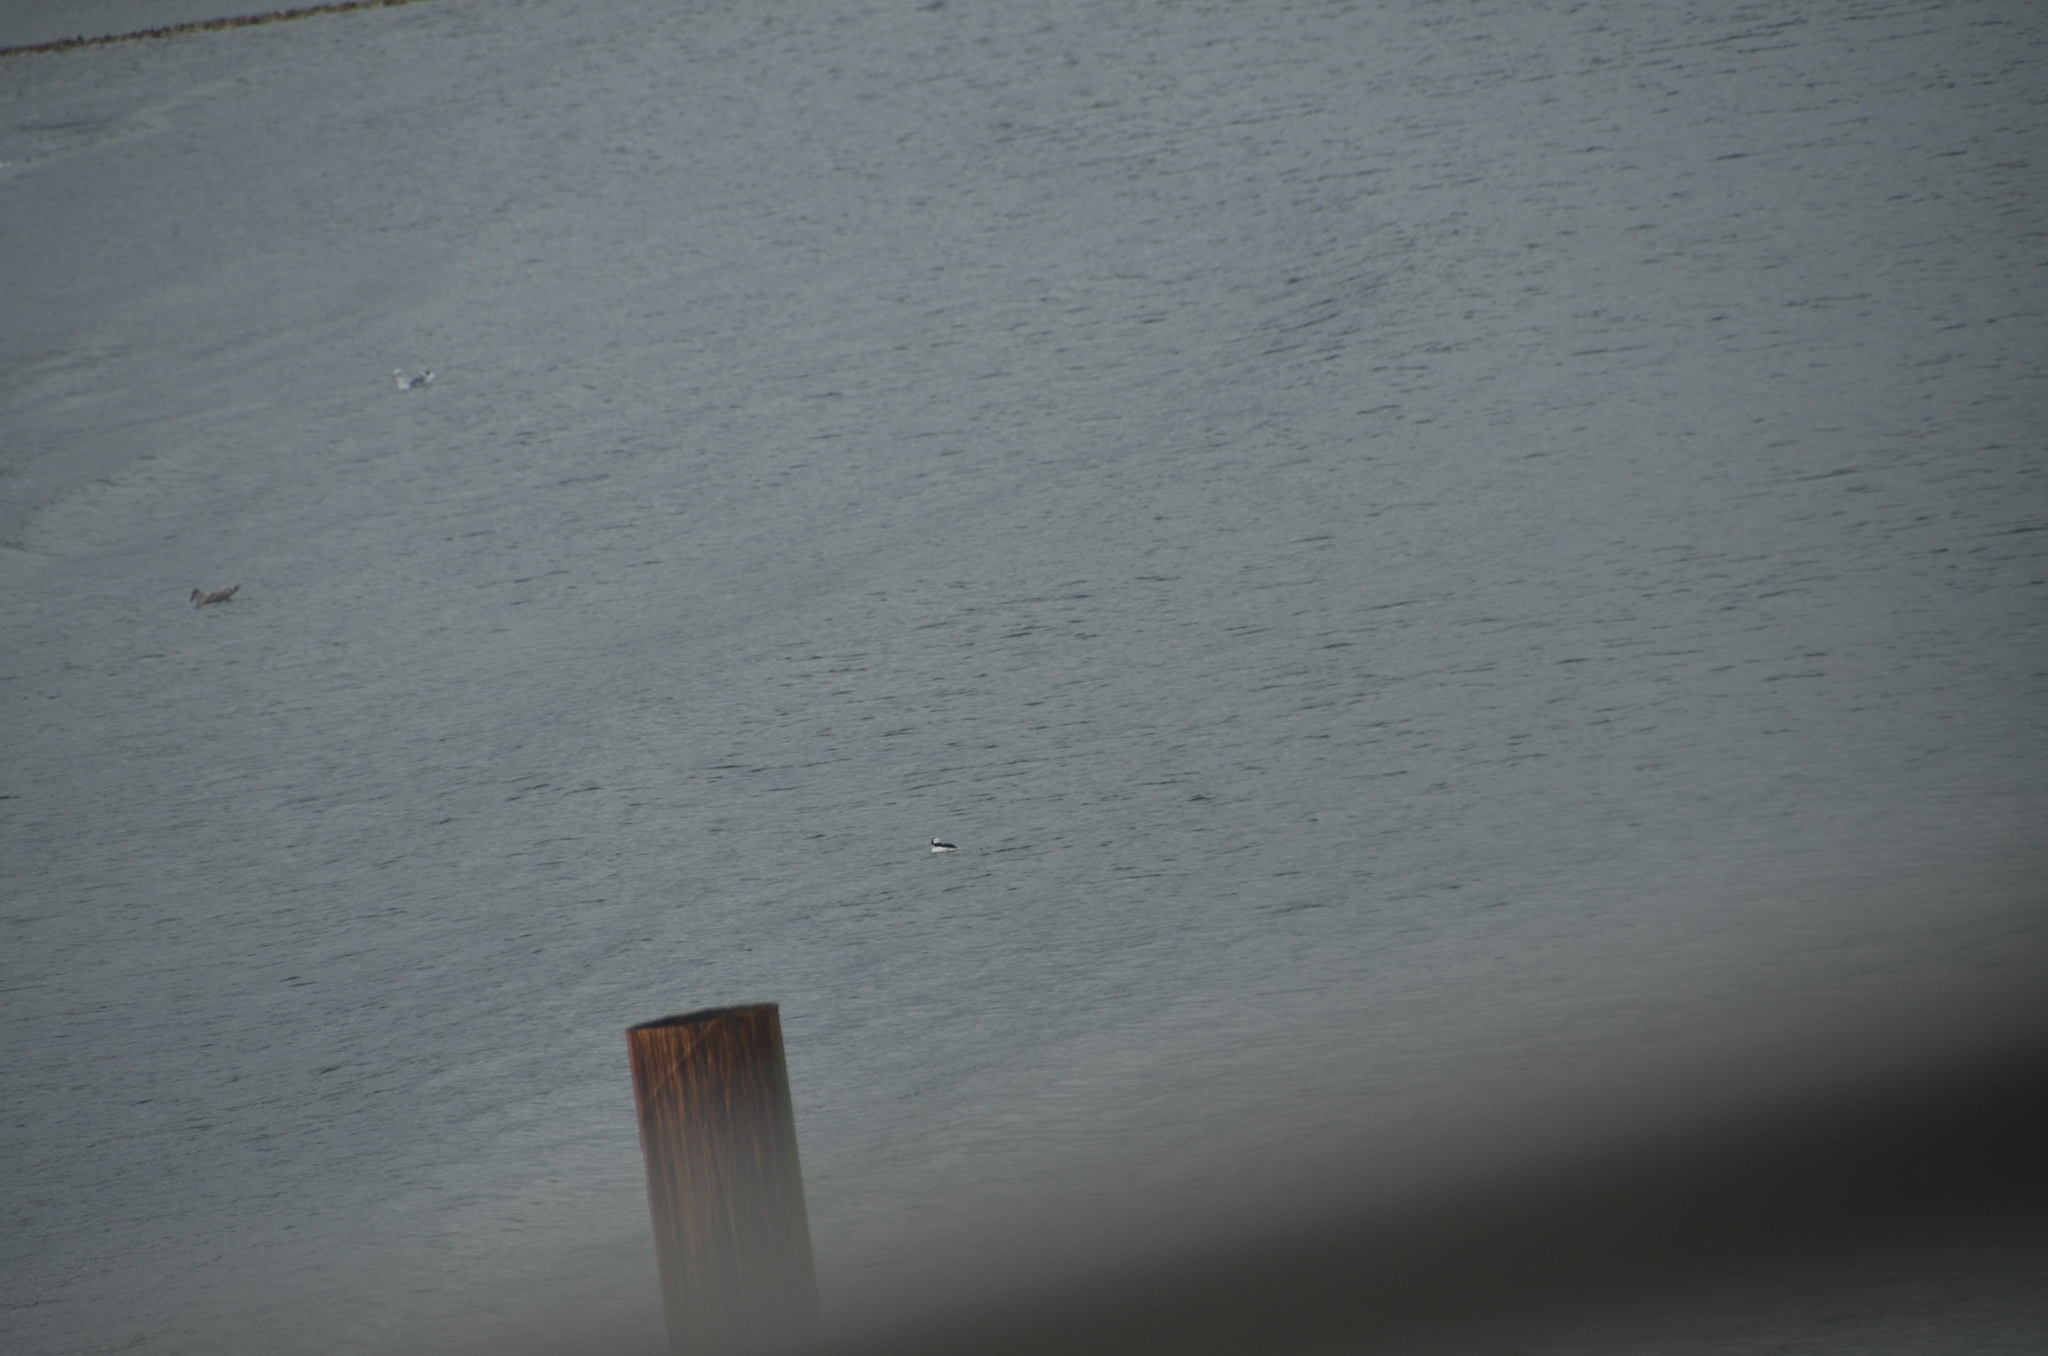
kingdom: Animalia
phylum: Chordata
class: Aves
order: Anseriformes
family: Anatidae
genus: Bucephala
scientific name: Bucephala albeola
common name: Bufflehead
